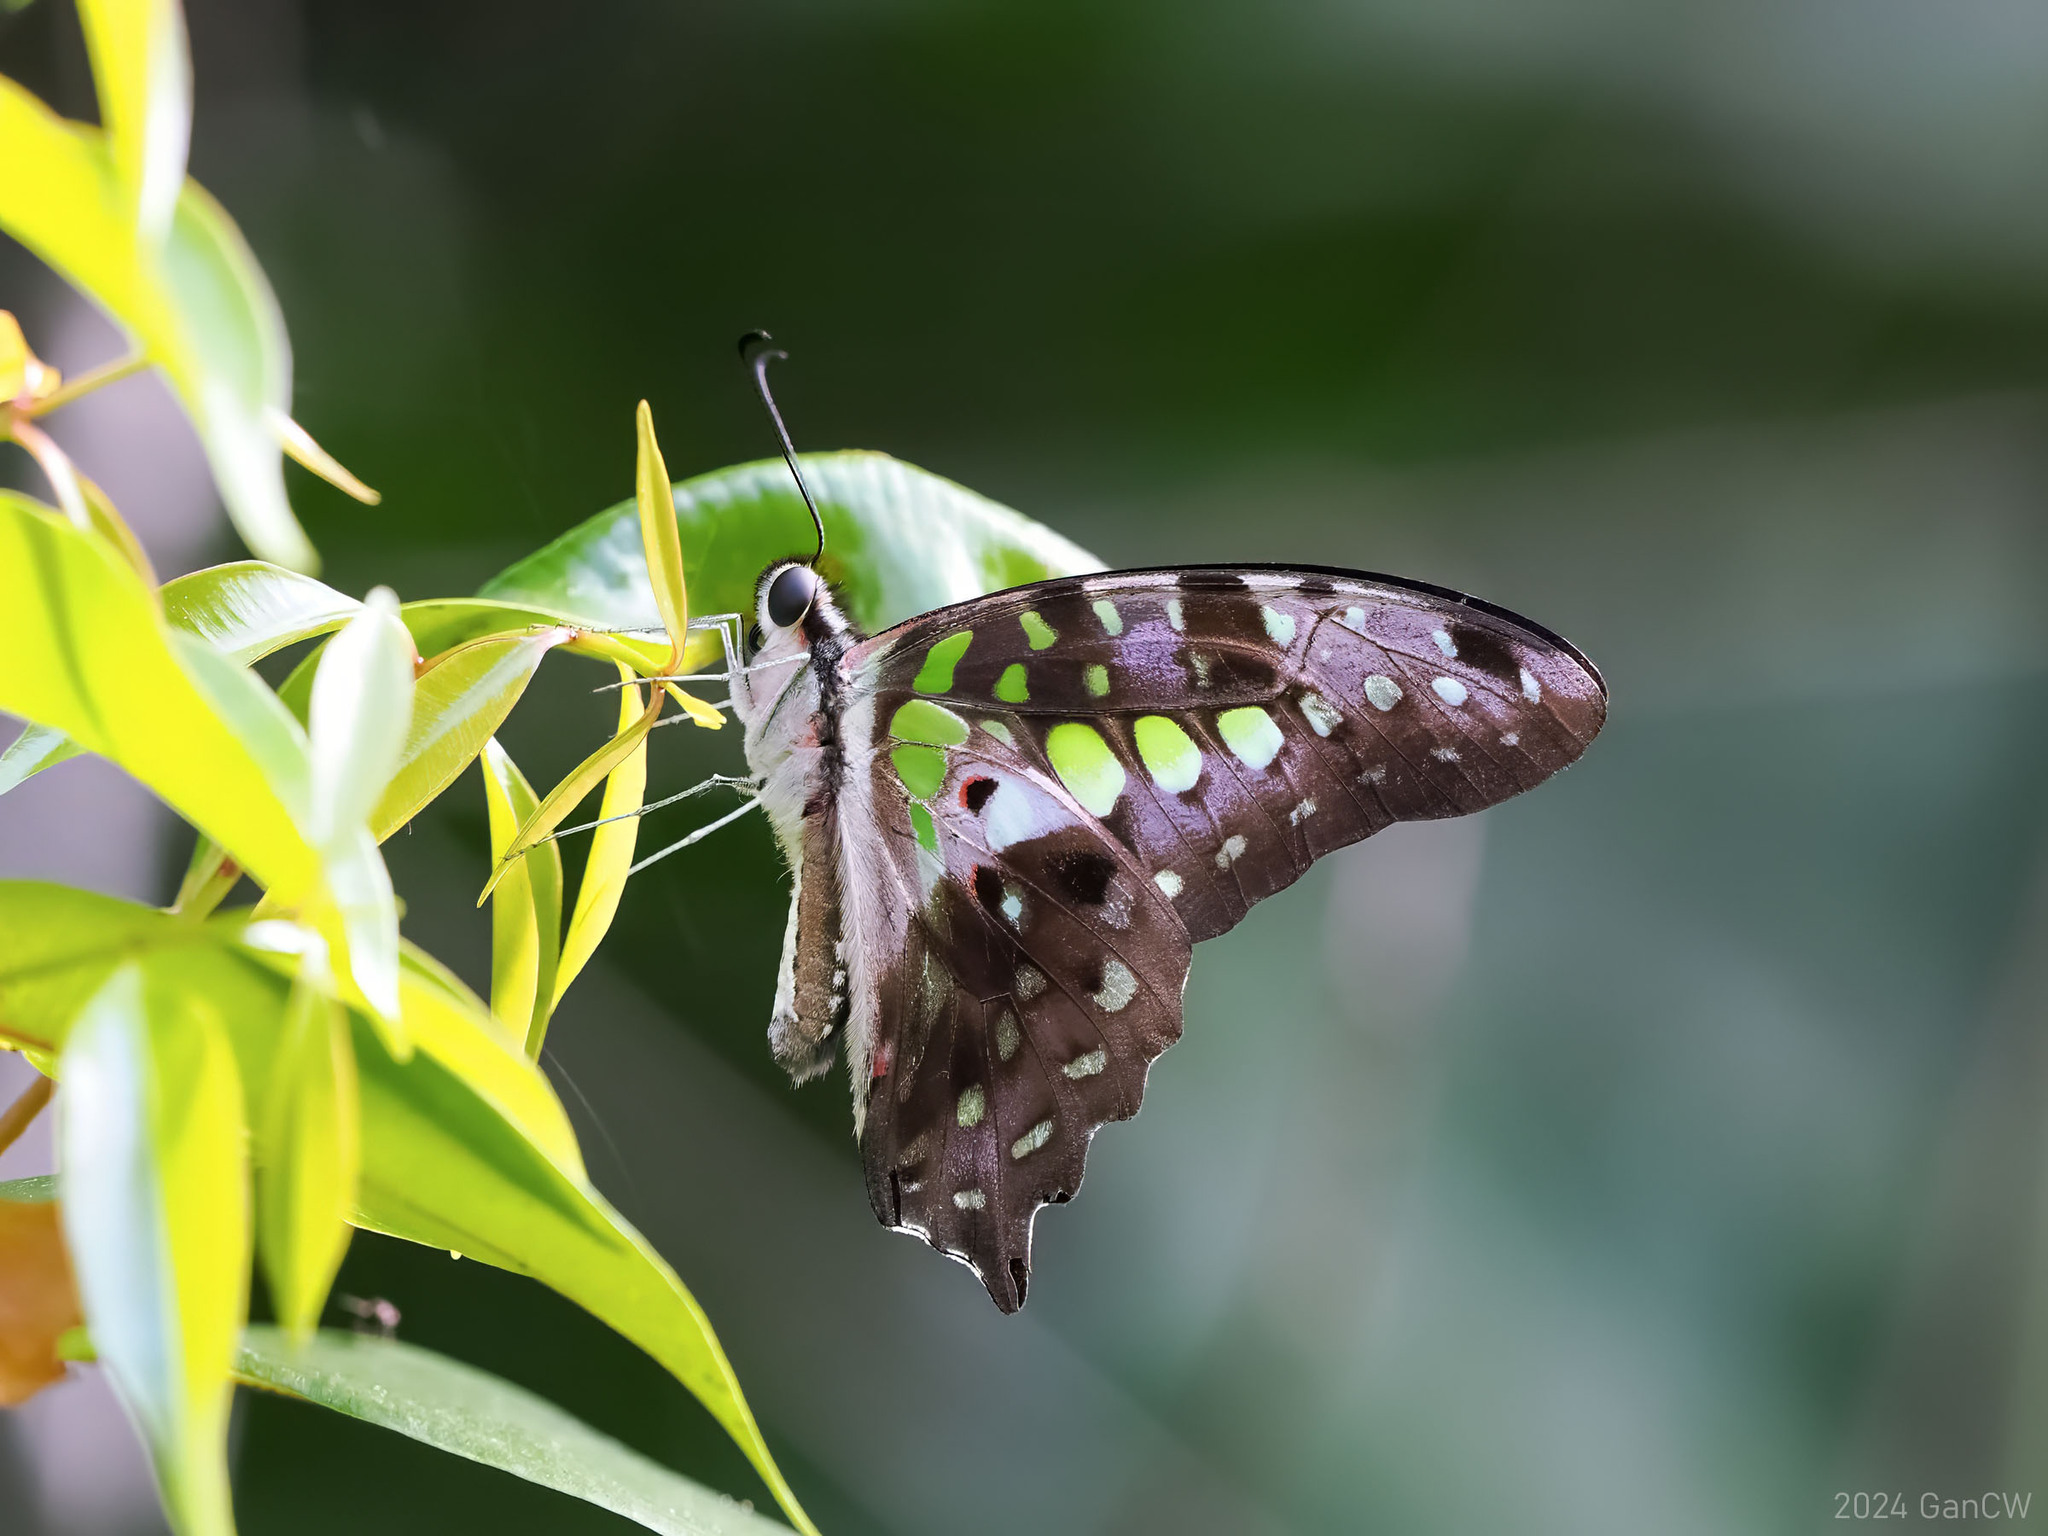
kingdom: Animalia
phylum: Arthropoda
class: Insecta
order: Lepidoptera
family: Papilionidae
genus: Graphium
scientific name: Graphium agamemnon
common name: Tailed jay
